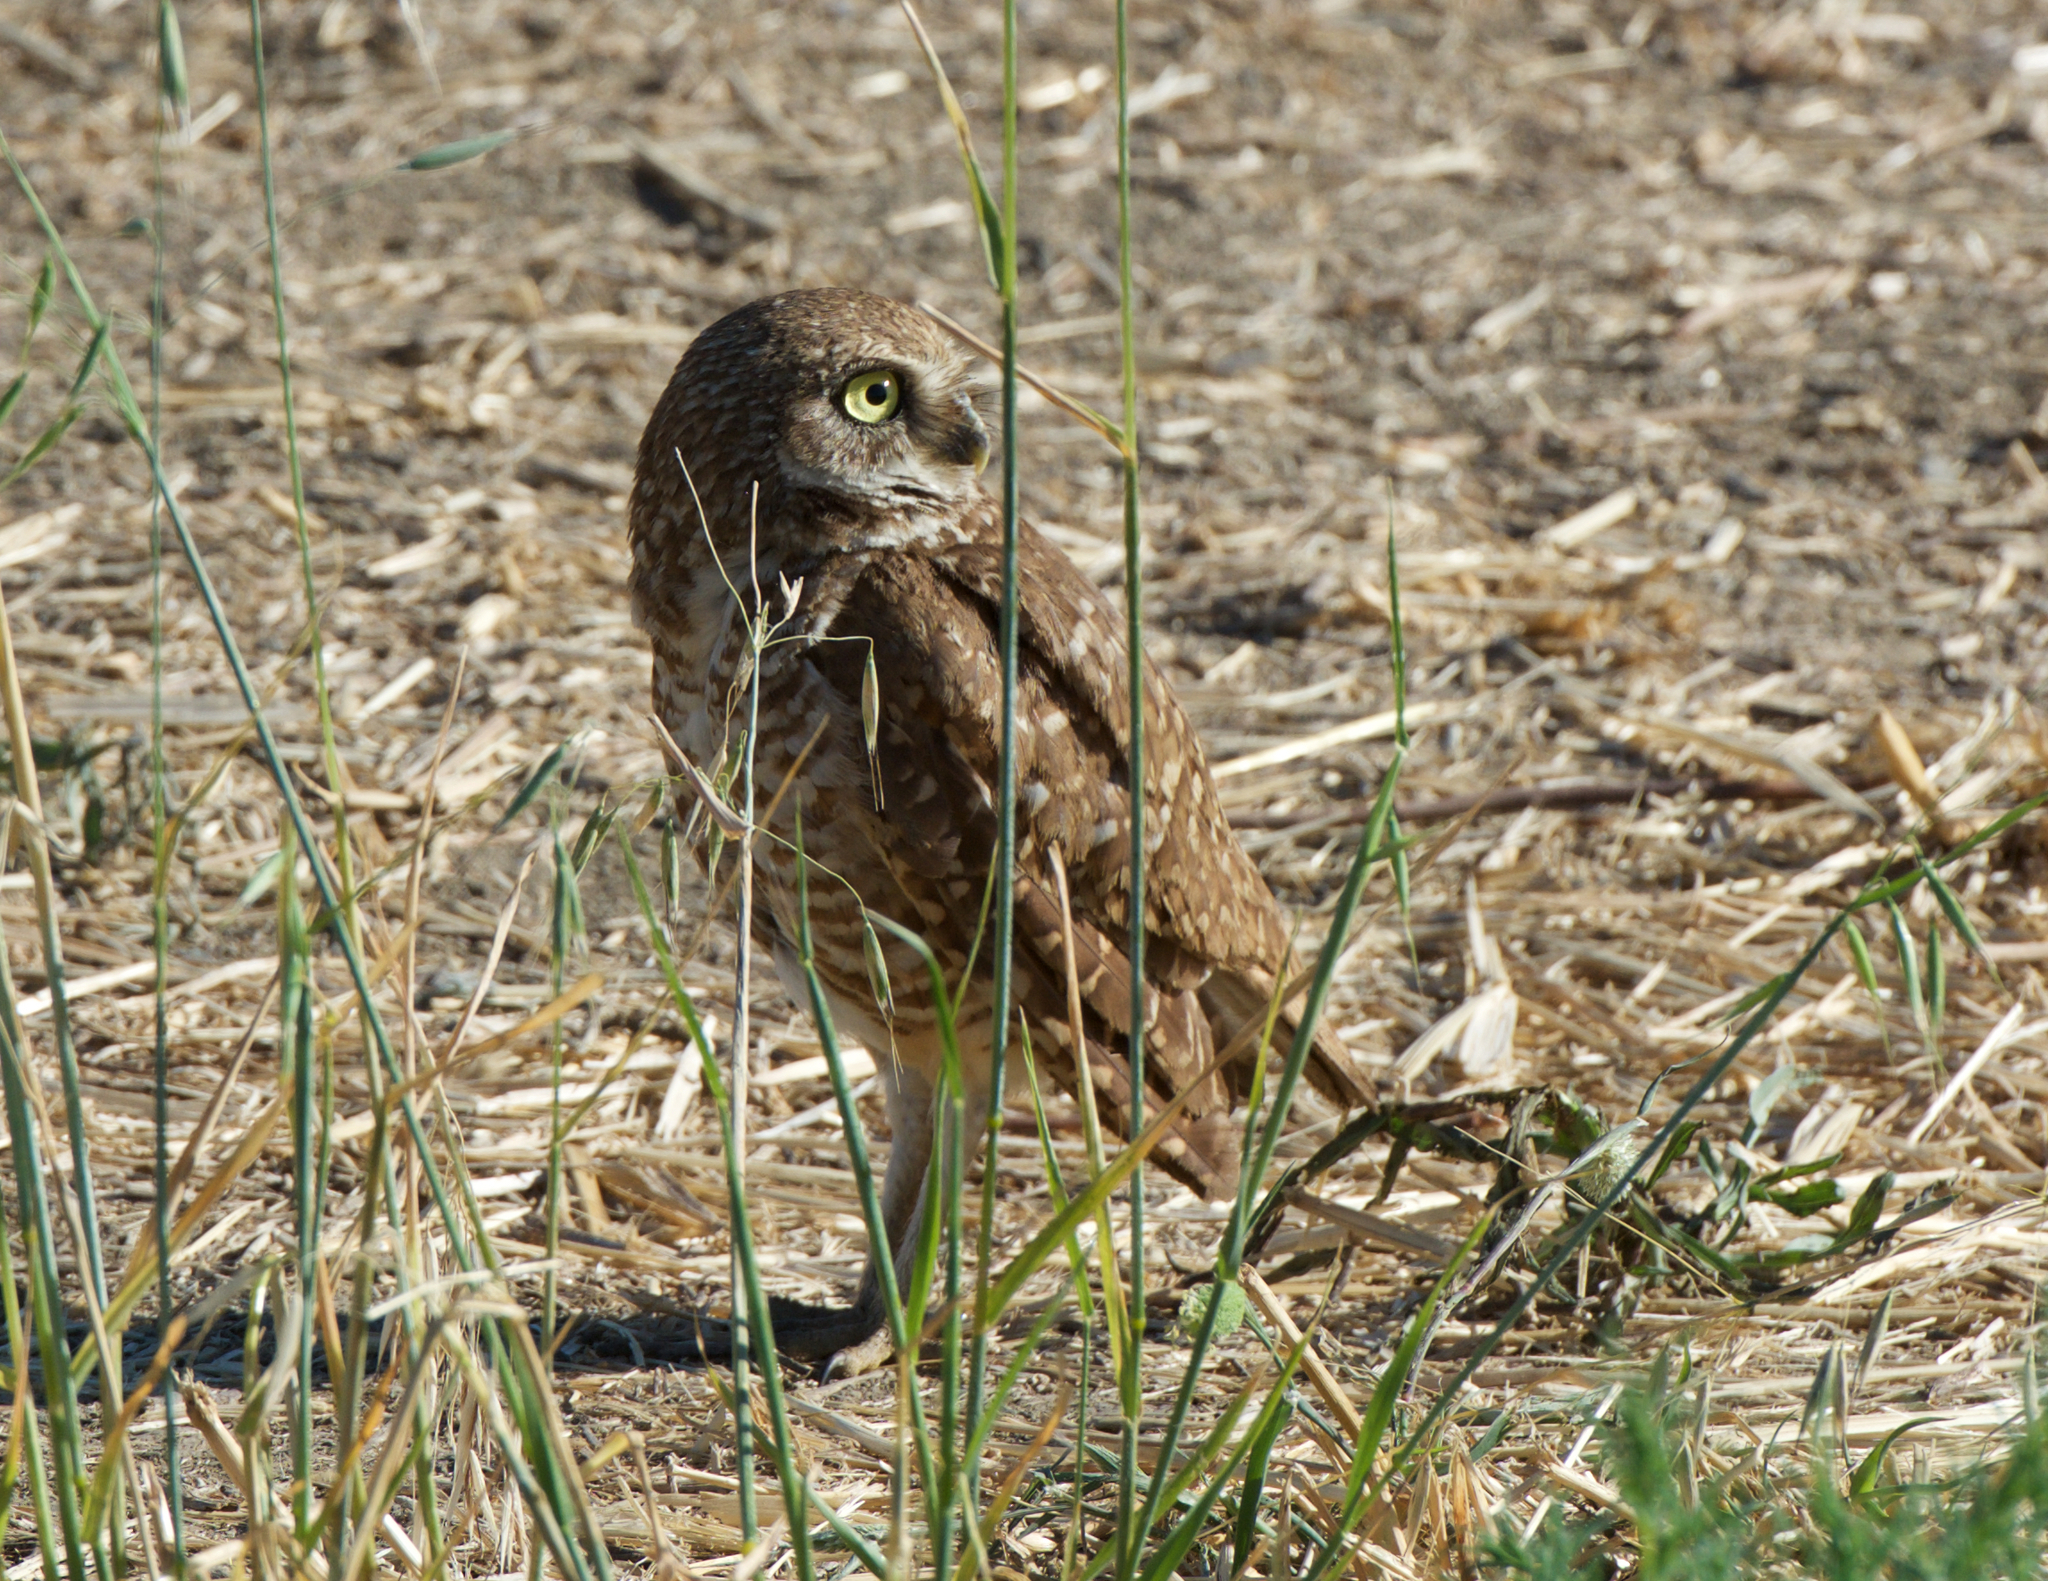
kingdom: Animalia
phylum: Chordata
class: Aves
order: Strigiformes
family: Strigidae
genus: Athene
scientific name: Athene cunicularia
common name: Burrowing owl
